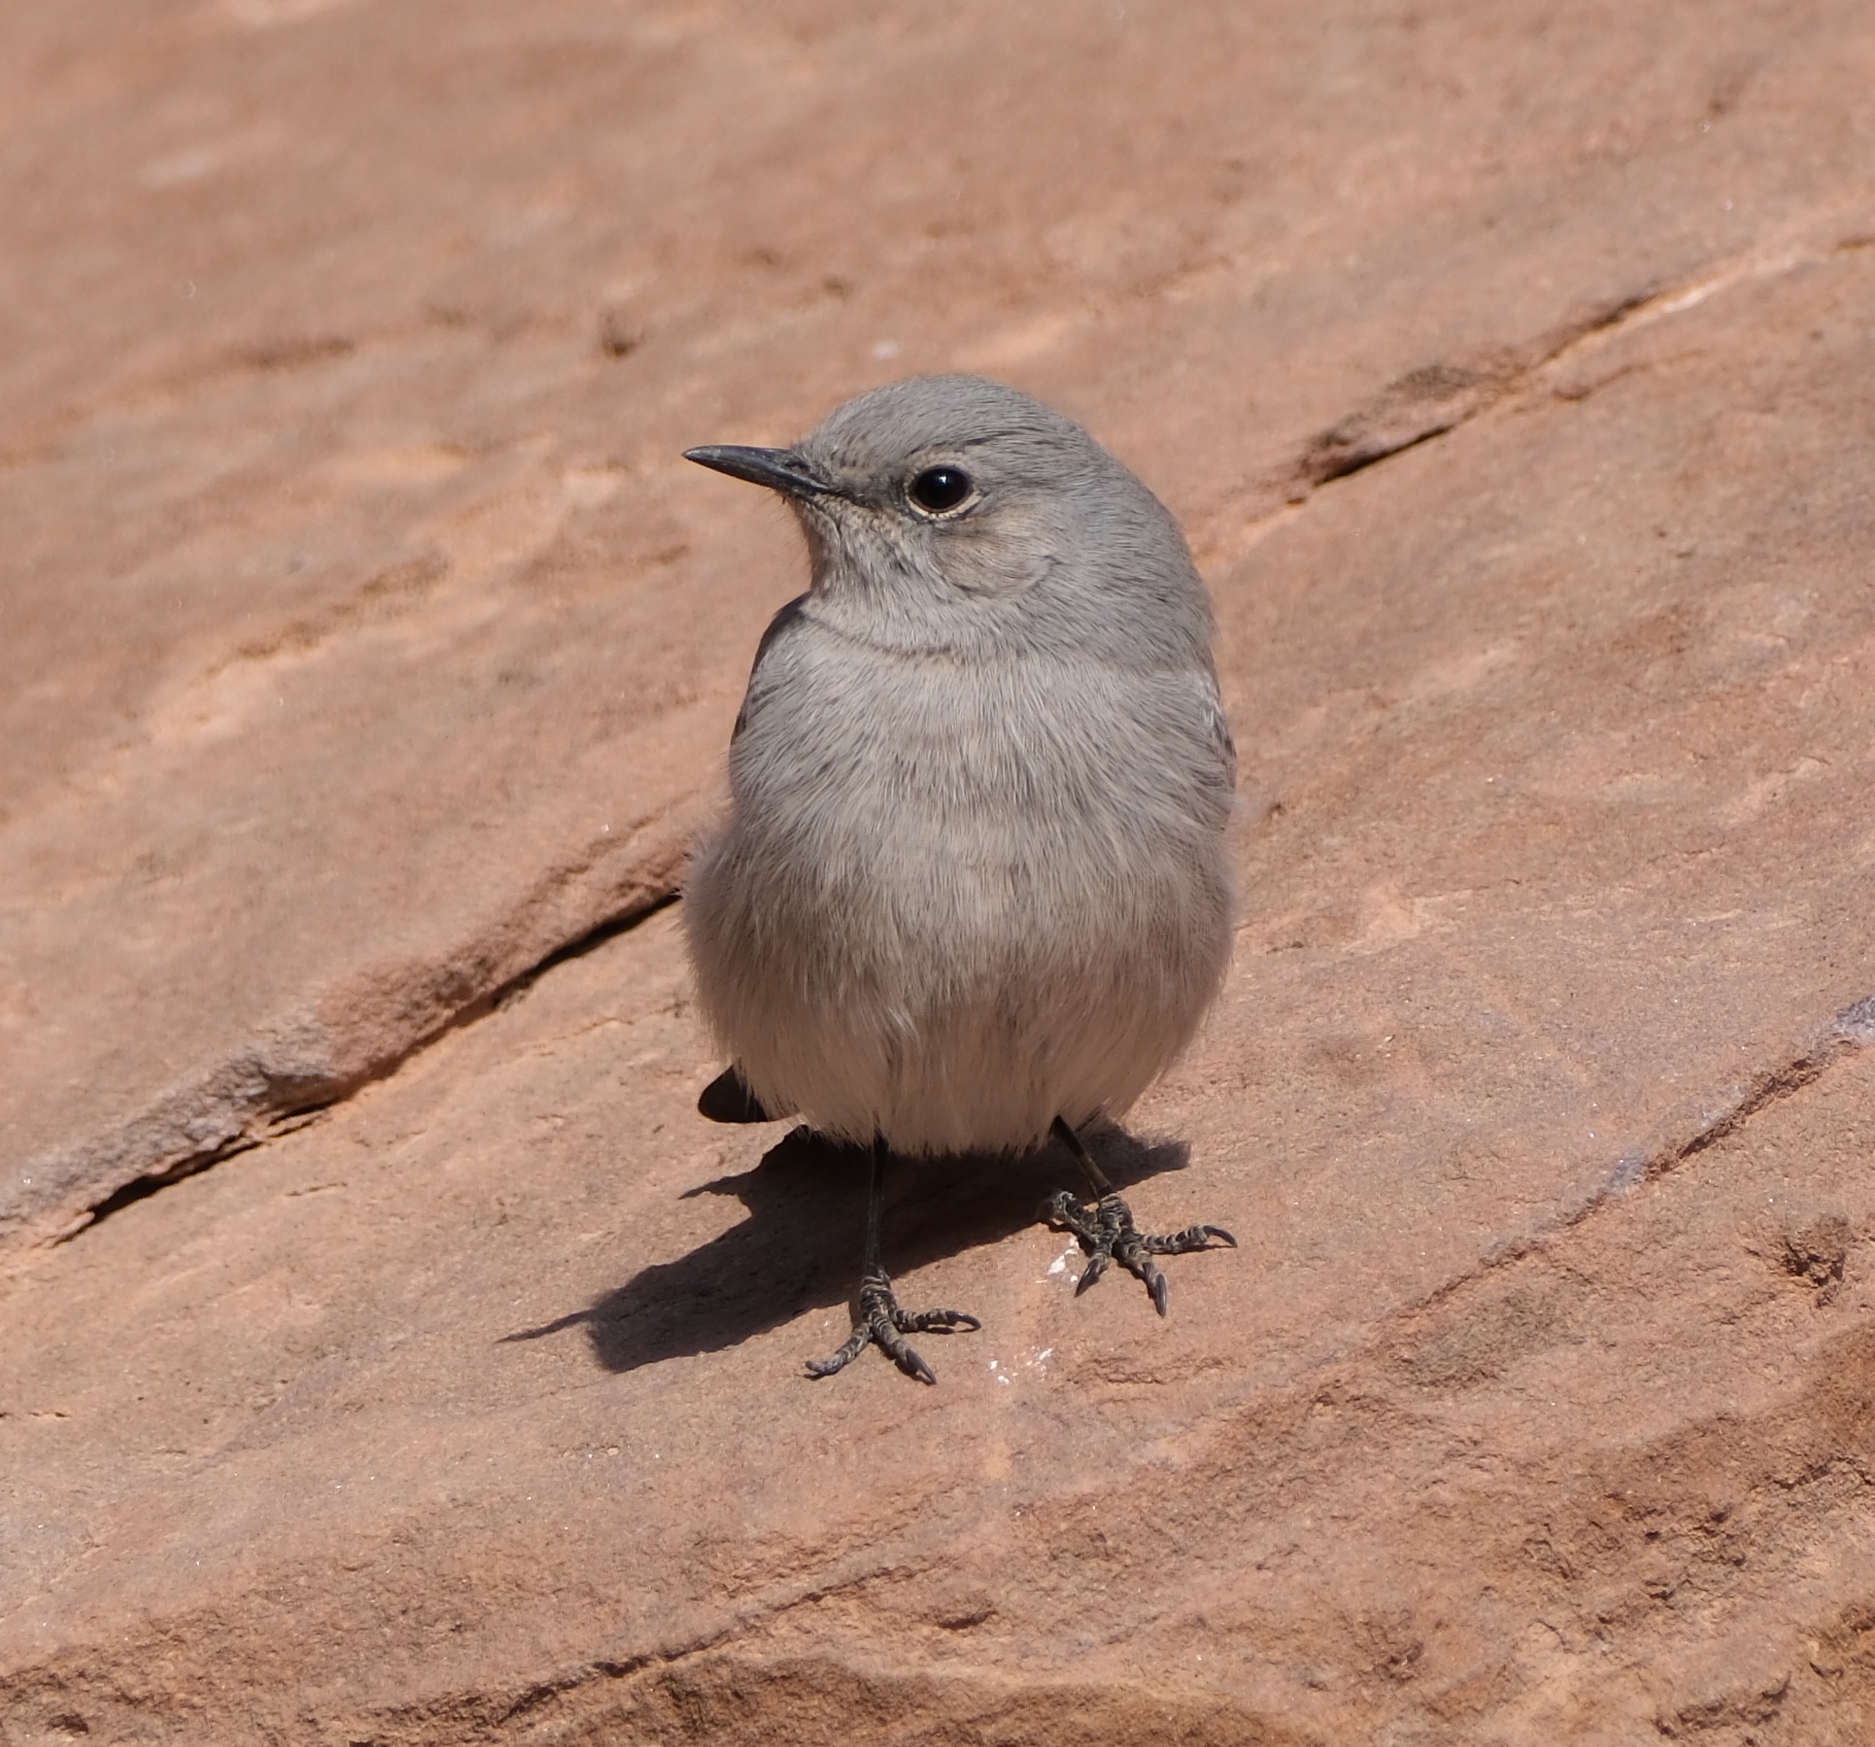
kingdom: Animalia
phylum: Chordata
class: Aves
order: Passeriformes
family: Muscicapidae
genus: Oenanthe
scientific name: Oenanthe melanura
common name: Blackstart
